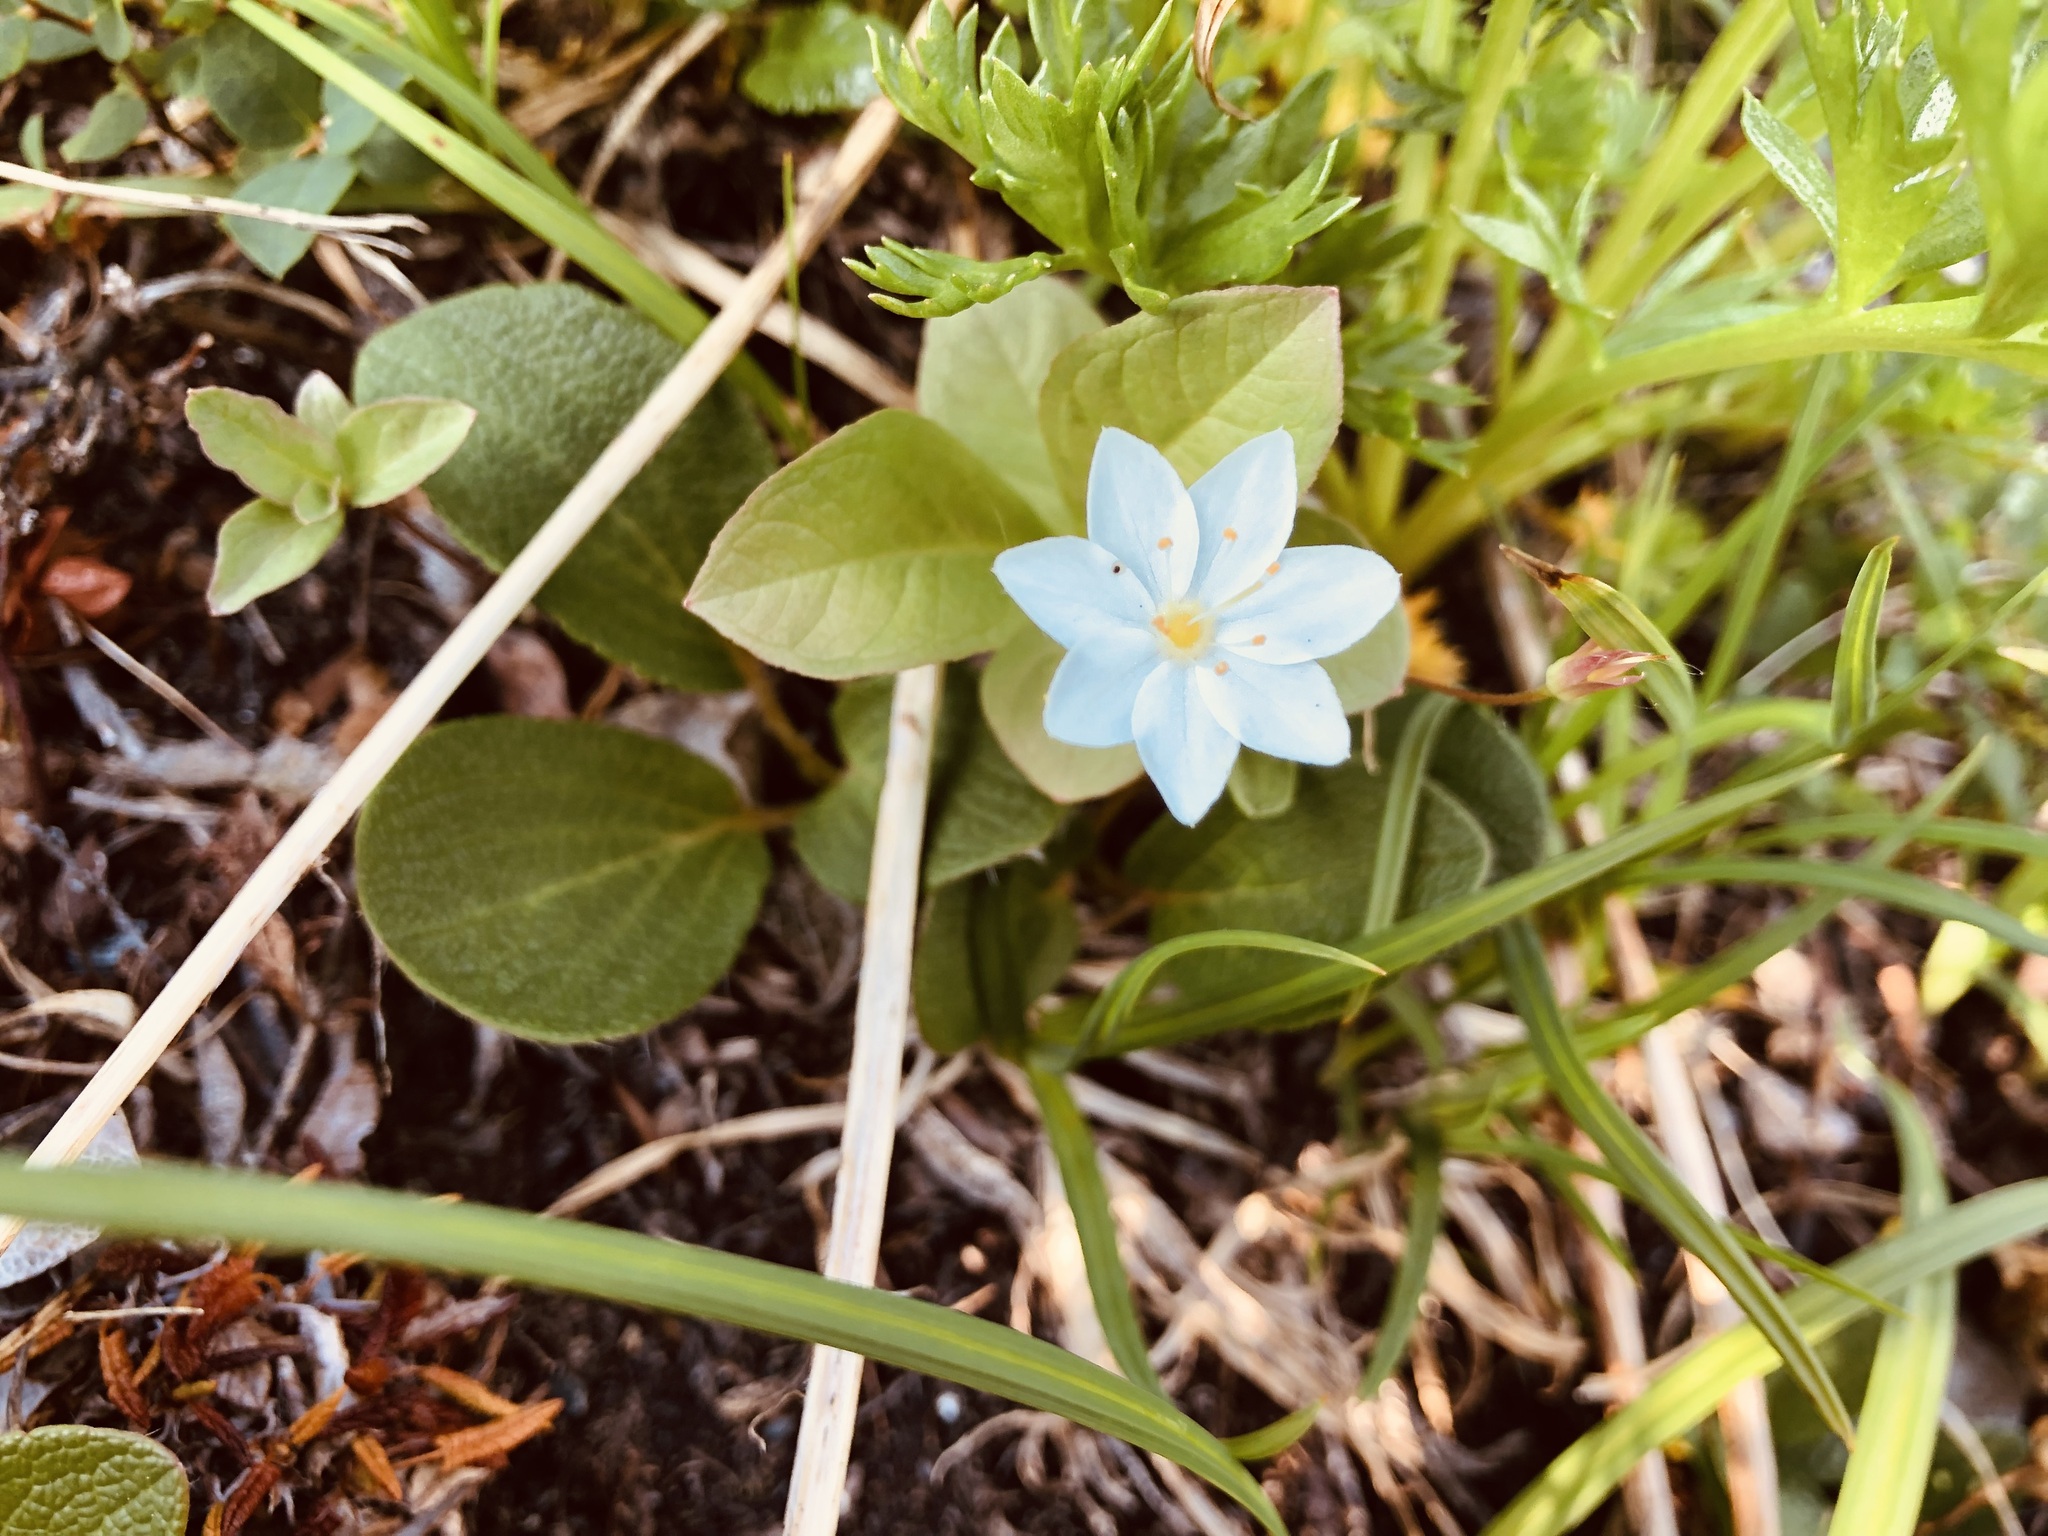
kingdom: Plantae
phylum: Tracheophyta
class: Magnoliopsida
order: Ericales
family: Primulaceae
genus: Lysimachia
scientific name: Lysimachia europaea
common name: Arctic starflower
